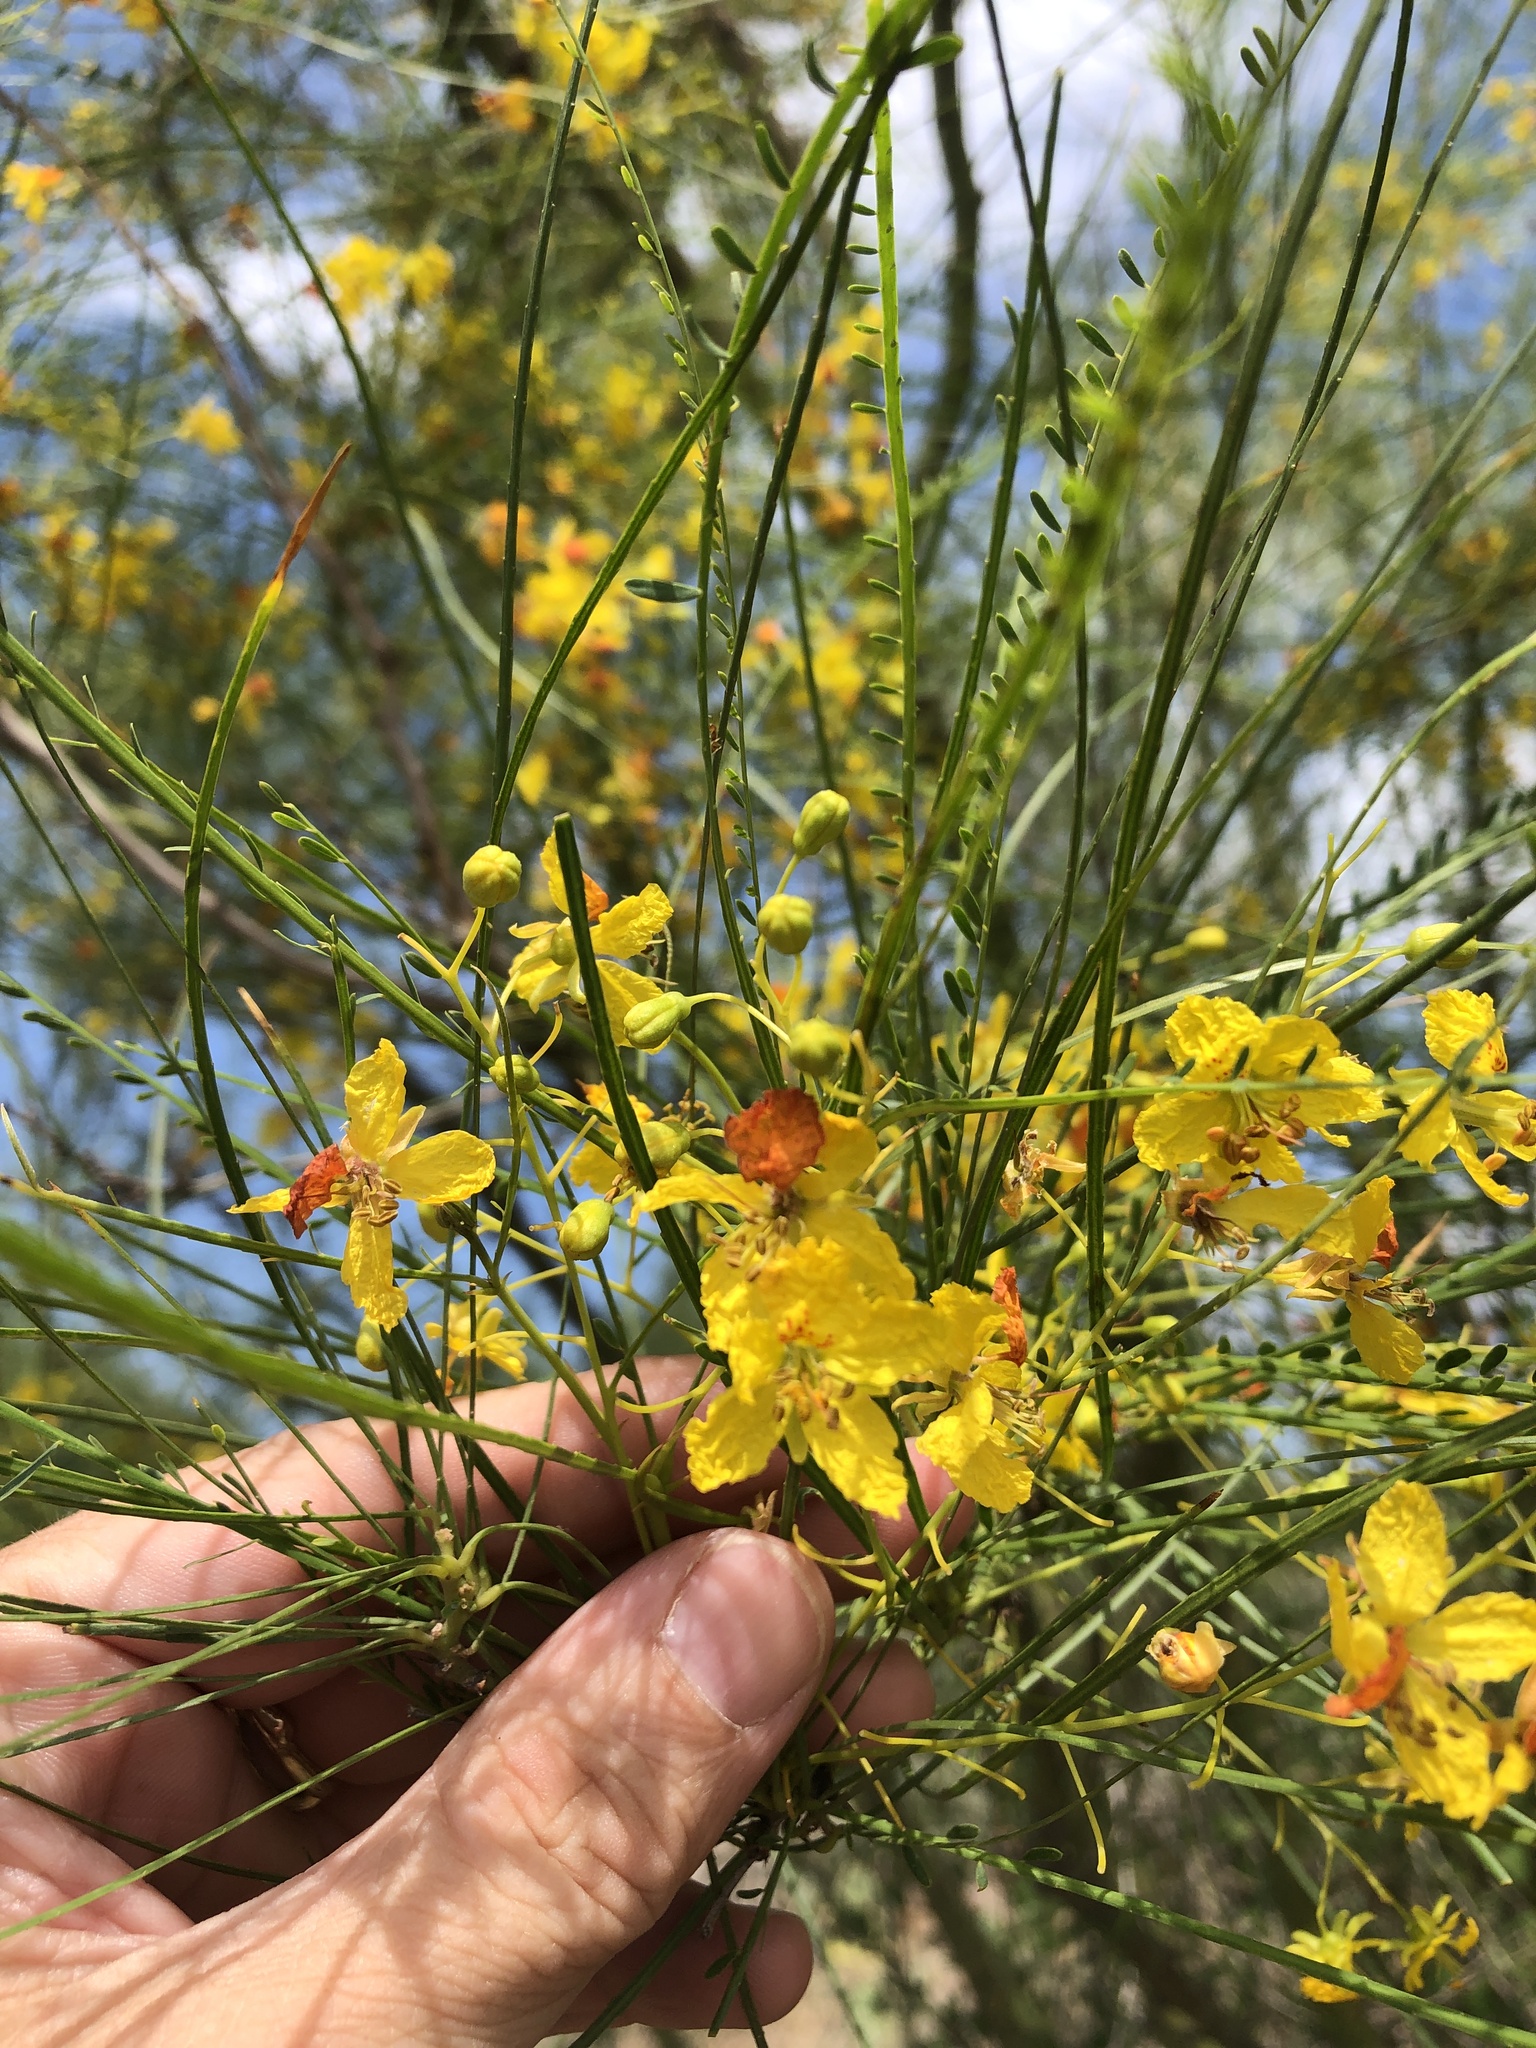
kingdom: Plantae
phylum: Tracheophyta
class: Magnoliopsida
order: Fabales
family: Fabaceae
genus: Parkinsonia
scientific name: Parkinsonia aculeata
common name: Jerusalem thorn
